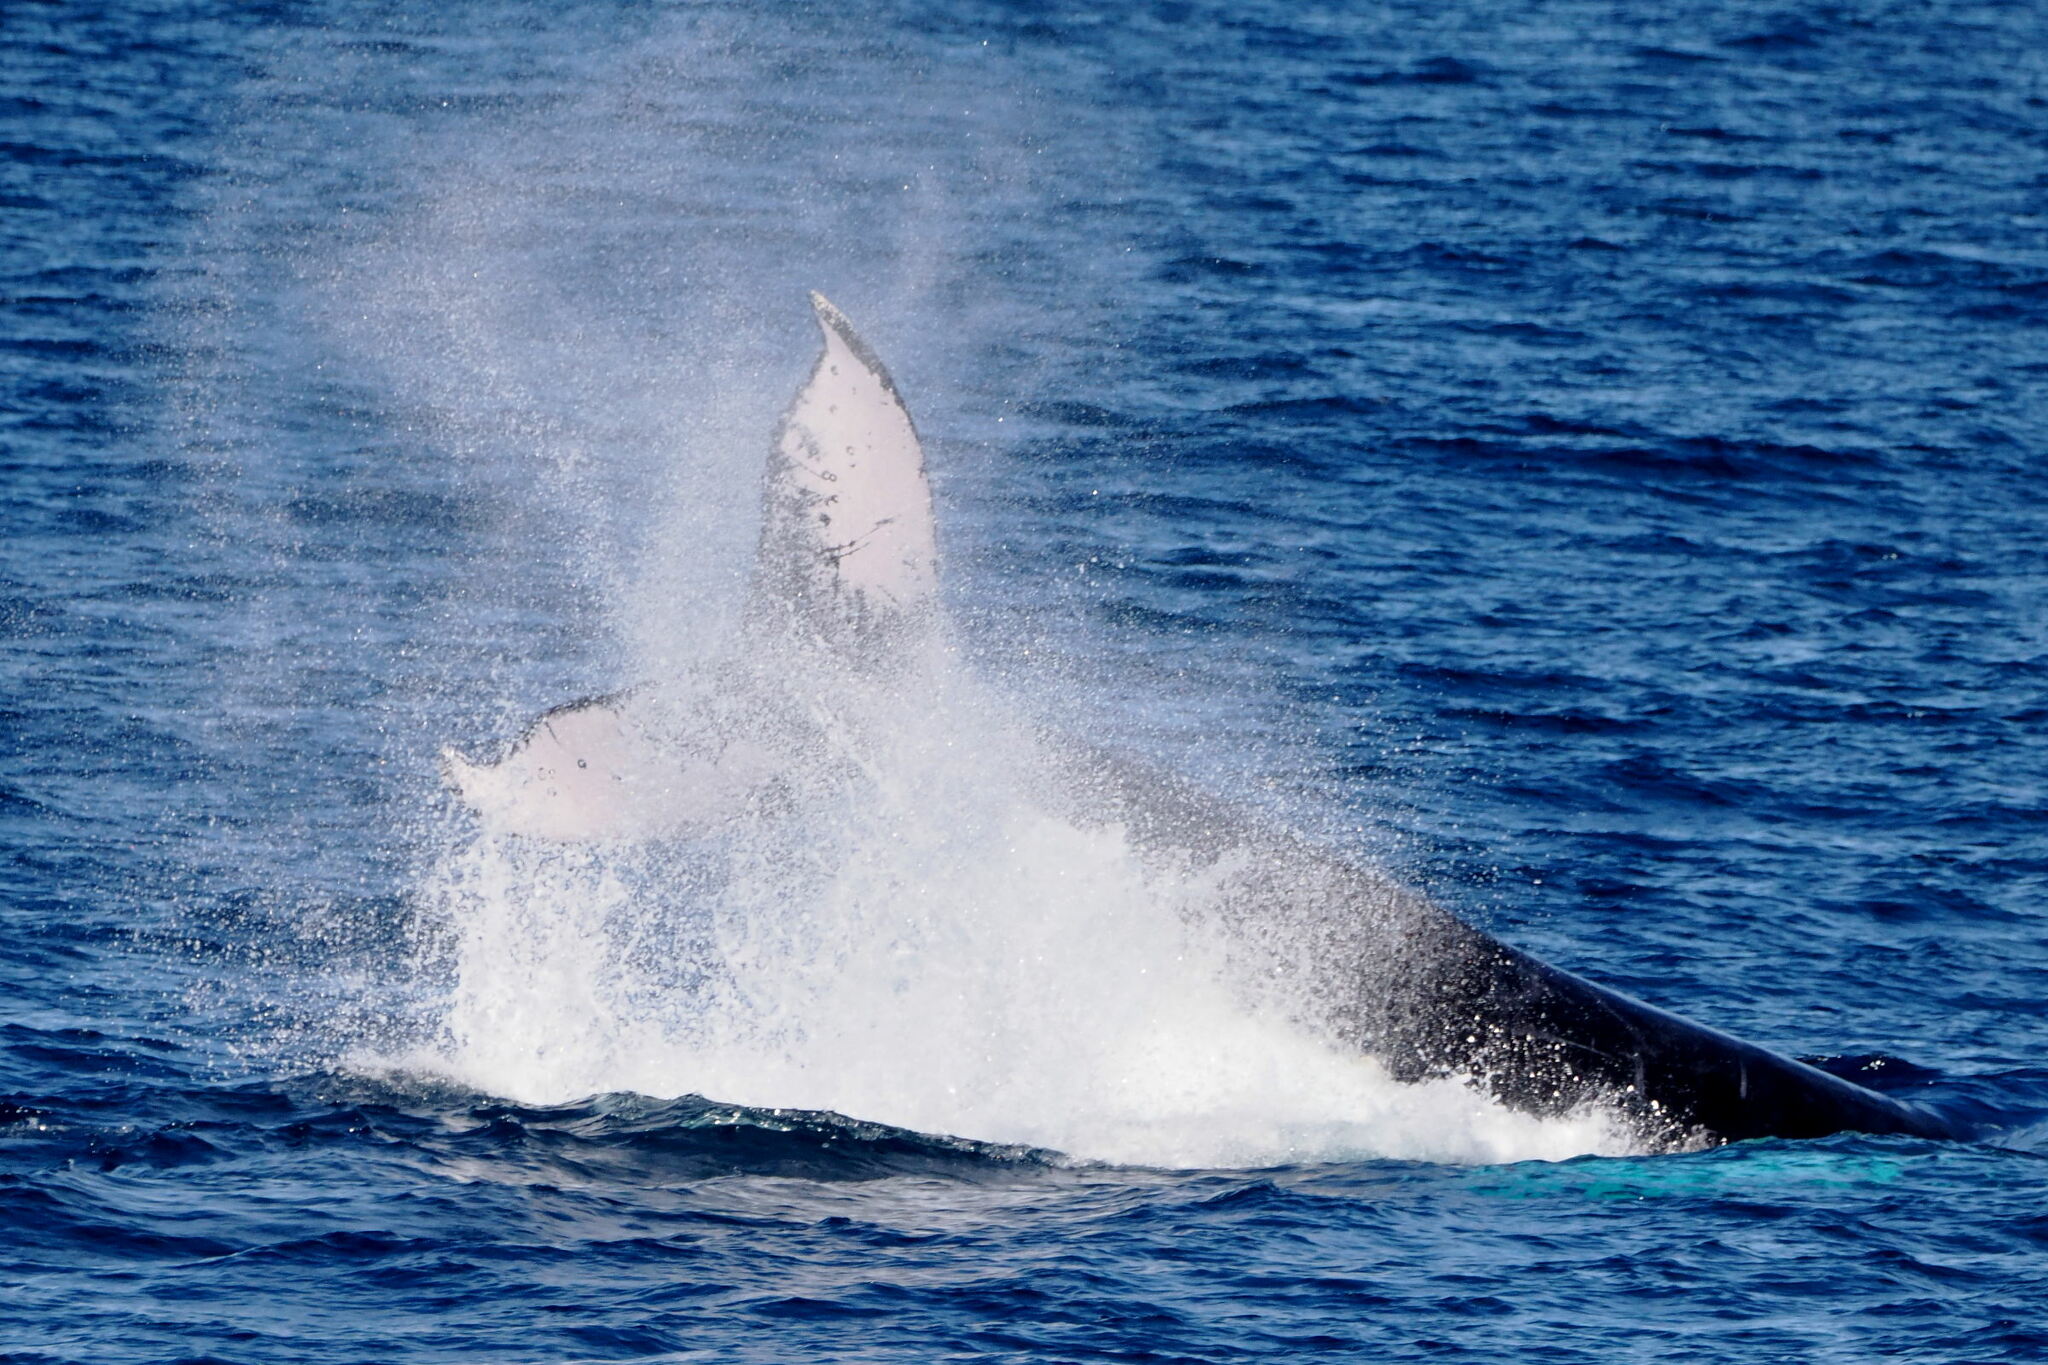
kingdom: Animalia
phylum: Chordata
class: Mammalia
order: Cetacea
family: Balaenopteridae
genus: Megaptera
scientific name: Megaptera novaeangliae
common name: Humpback whale
